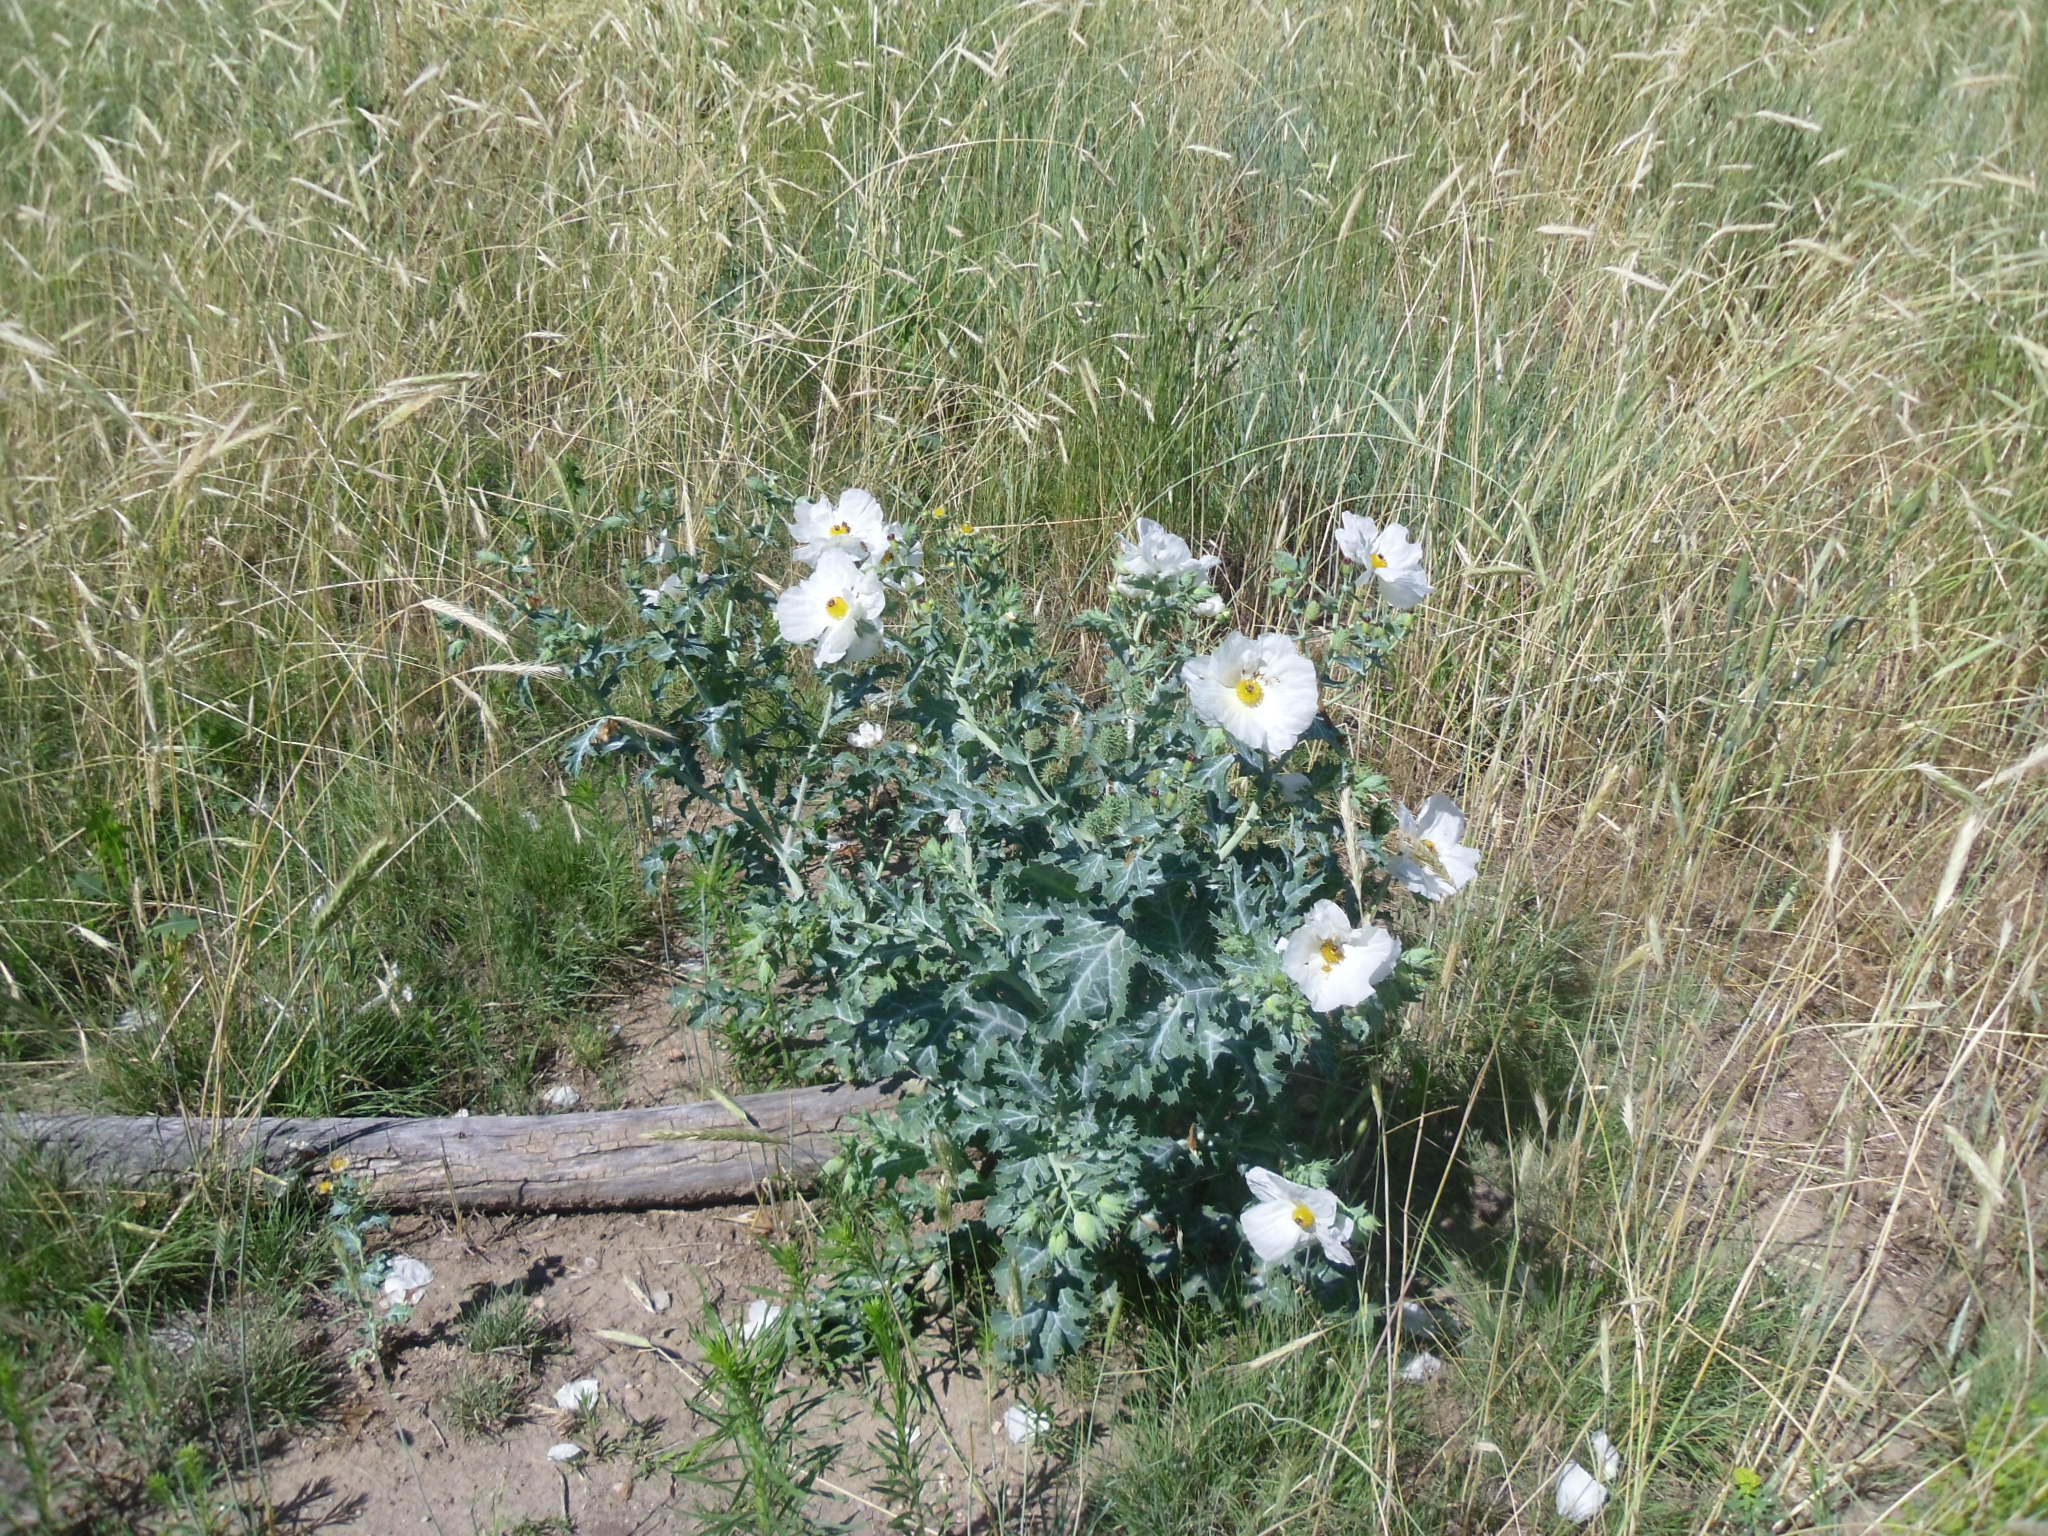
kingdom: Plantae
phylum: Tracheophyta
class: Magnoliopsida
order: Ranunculales
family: Papaveraceae
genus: Argemone
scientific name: Argemone polyanthemos
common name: Plains prickly-poppy
